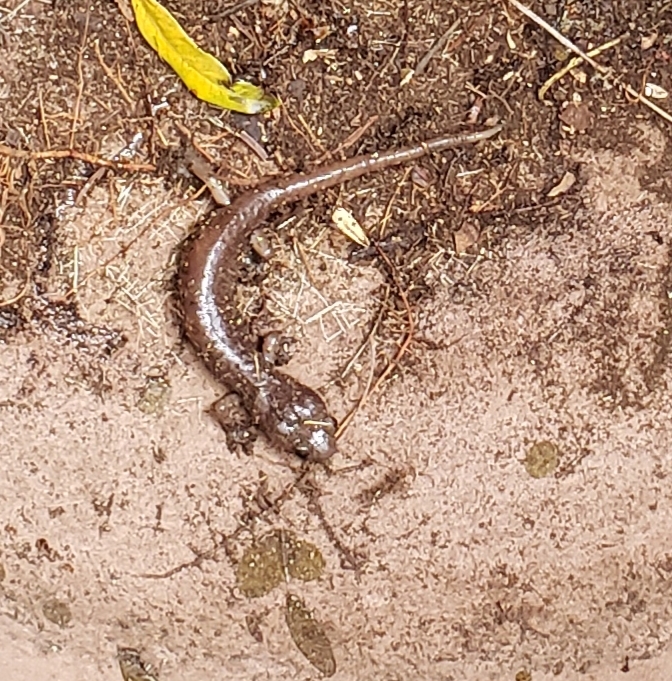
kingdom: Animalia
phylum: Chordata
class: Amphibia
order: Caudata
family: Plethodontidae
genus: Aneides
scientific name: Aneides lugubris
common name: Arboreal salamander
